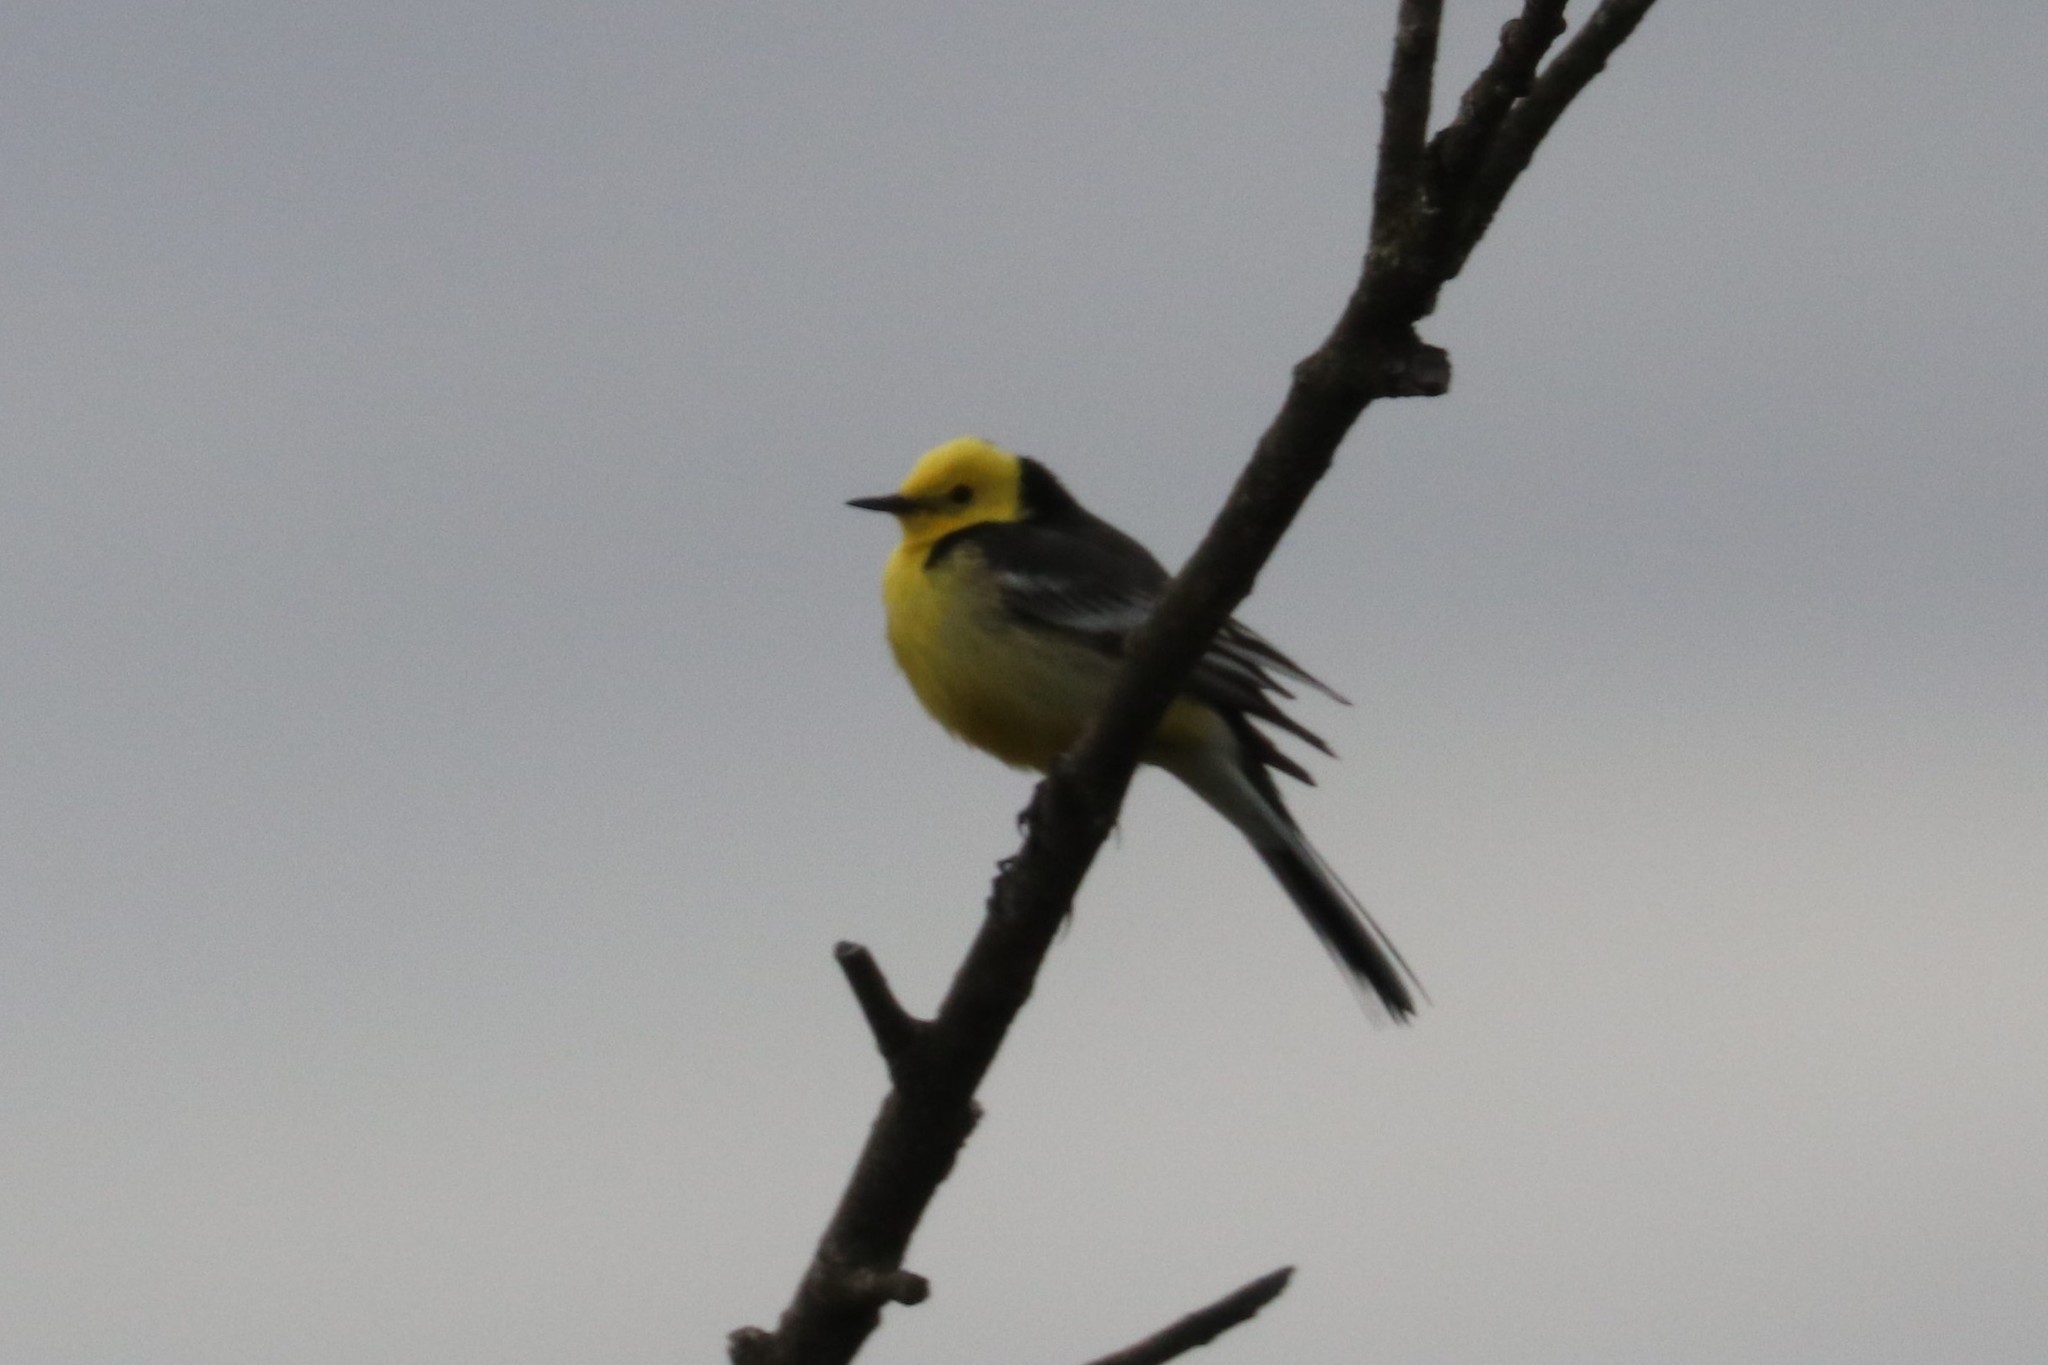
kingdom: Animalia
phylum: Chordata
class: Aves
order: Passeriformes
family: Motacillidae
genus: Motacilla
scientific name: Motacilla citreola
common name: Citrine wagtail
